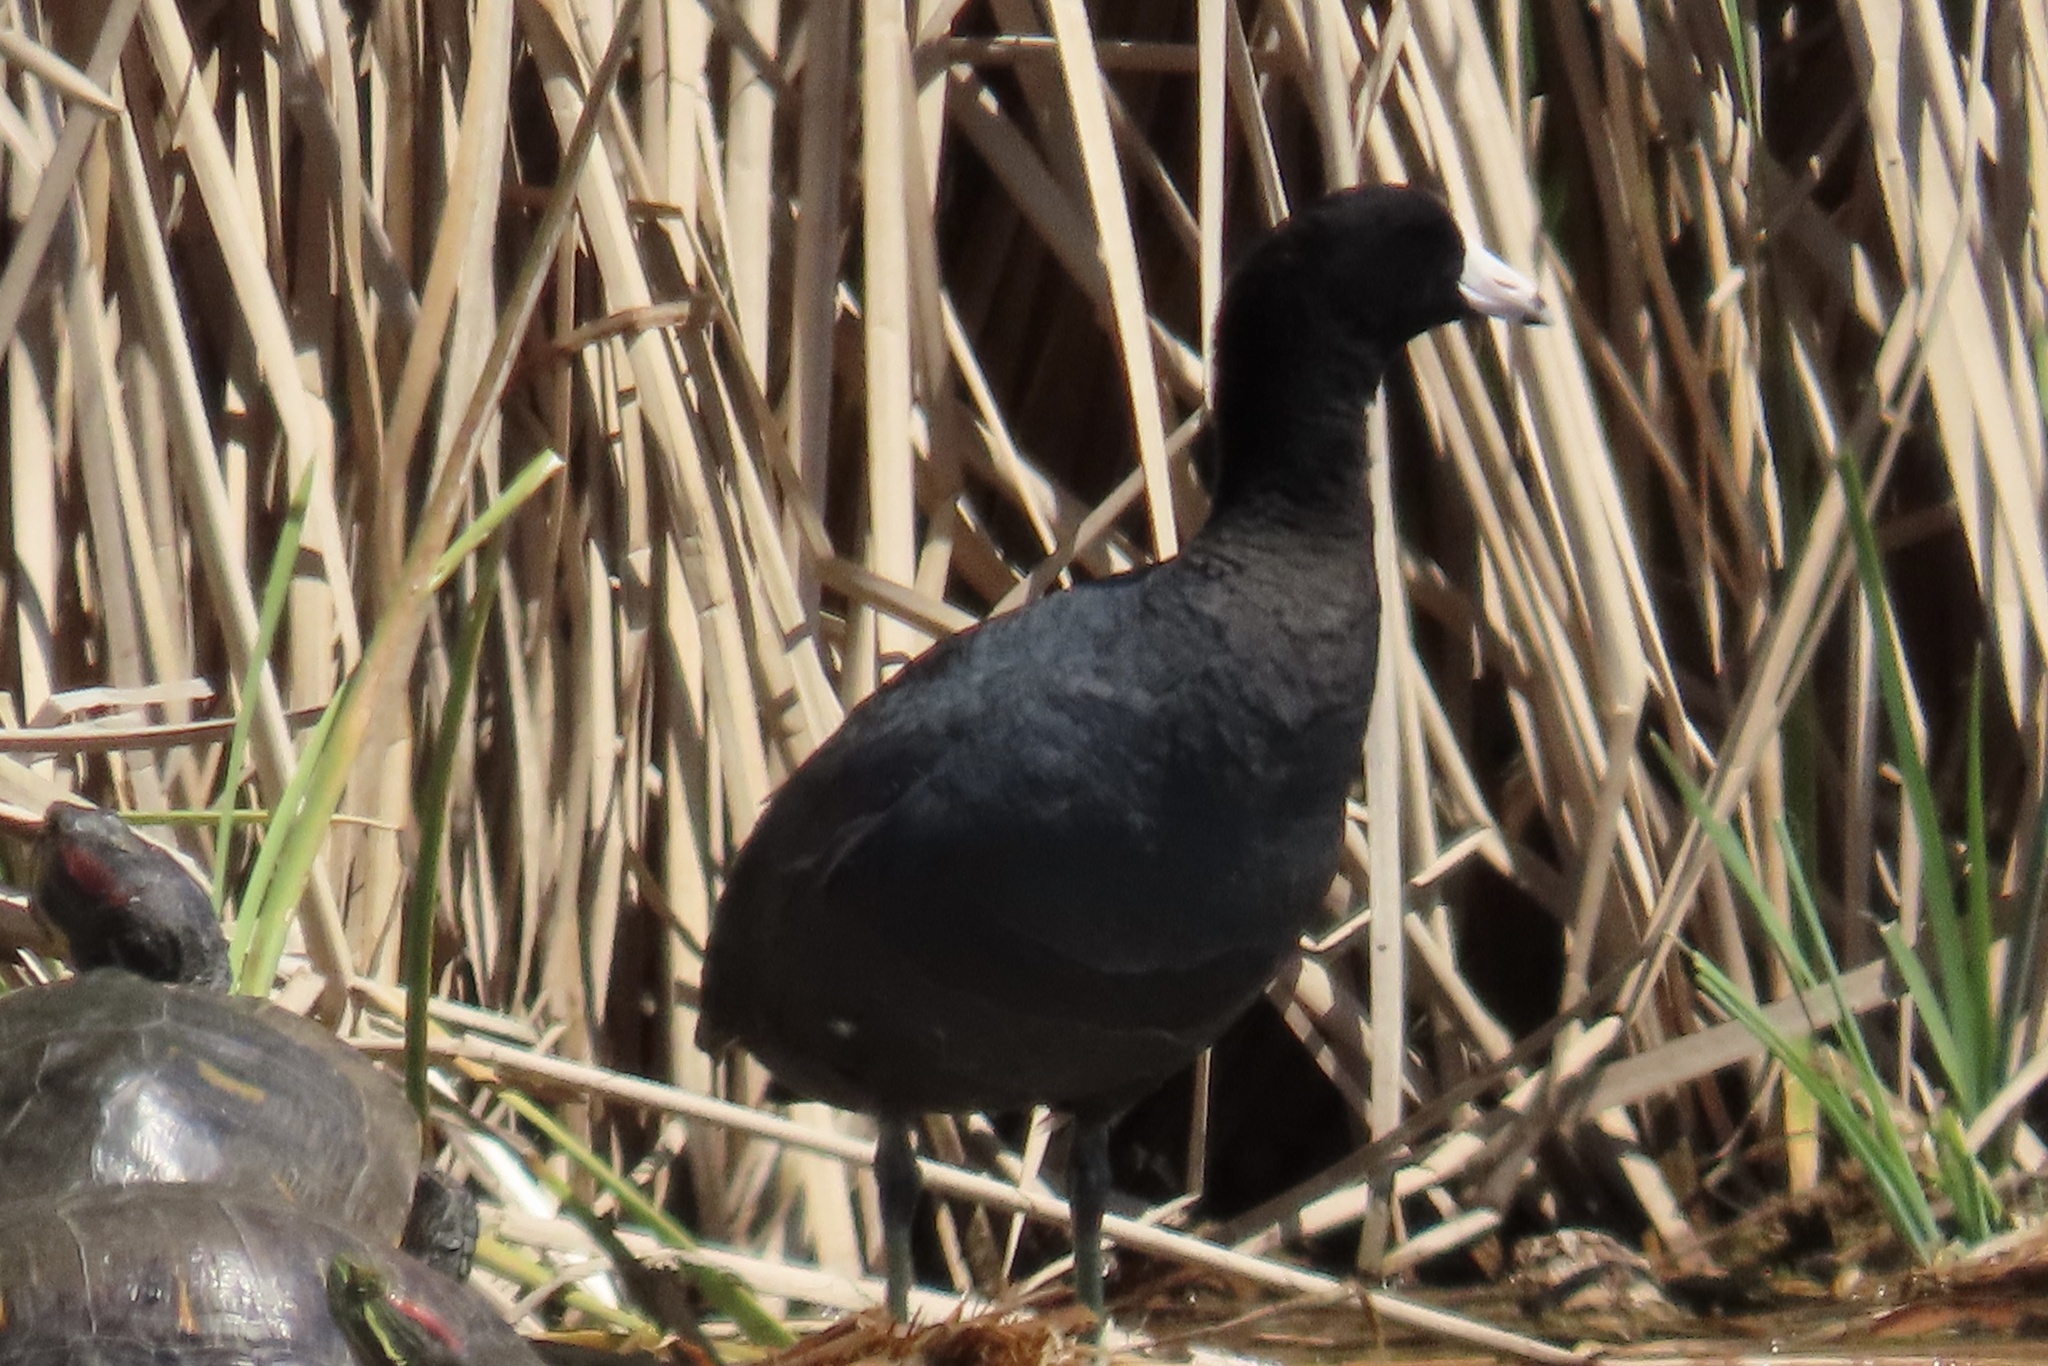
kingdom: Animalia
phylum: Chordata
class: Aves
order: Gruiformes
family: Rallidae
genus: Fulica
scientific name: Fulica americana
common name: American coot
